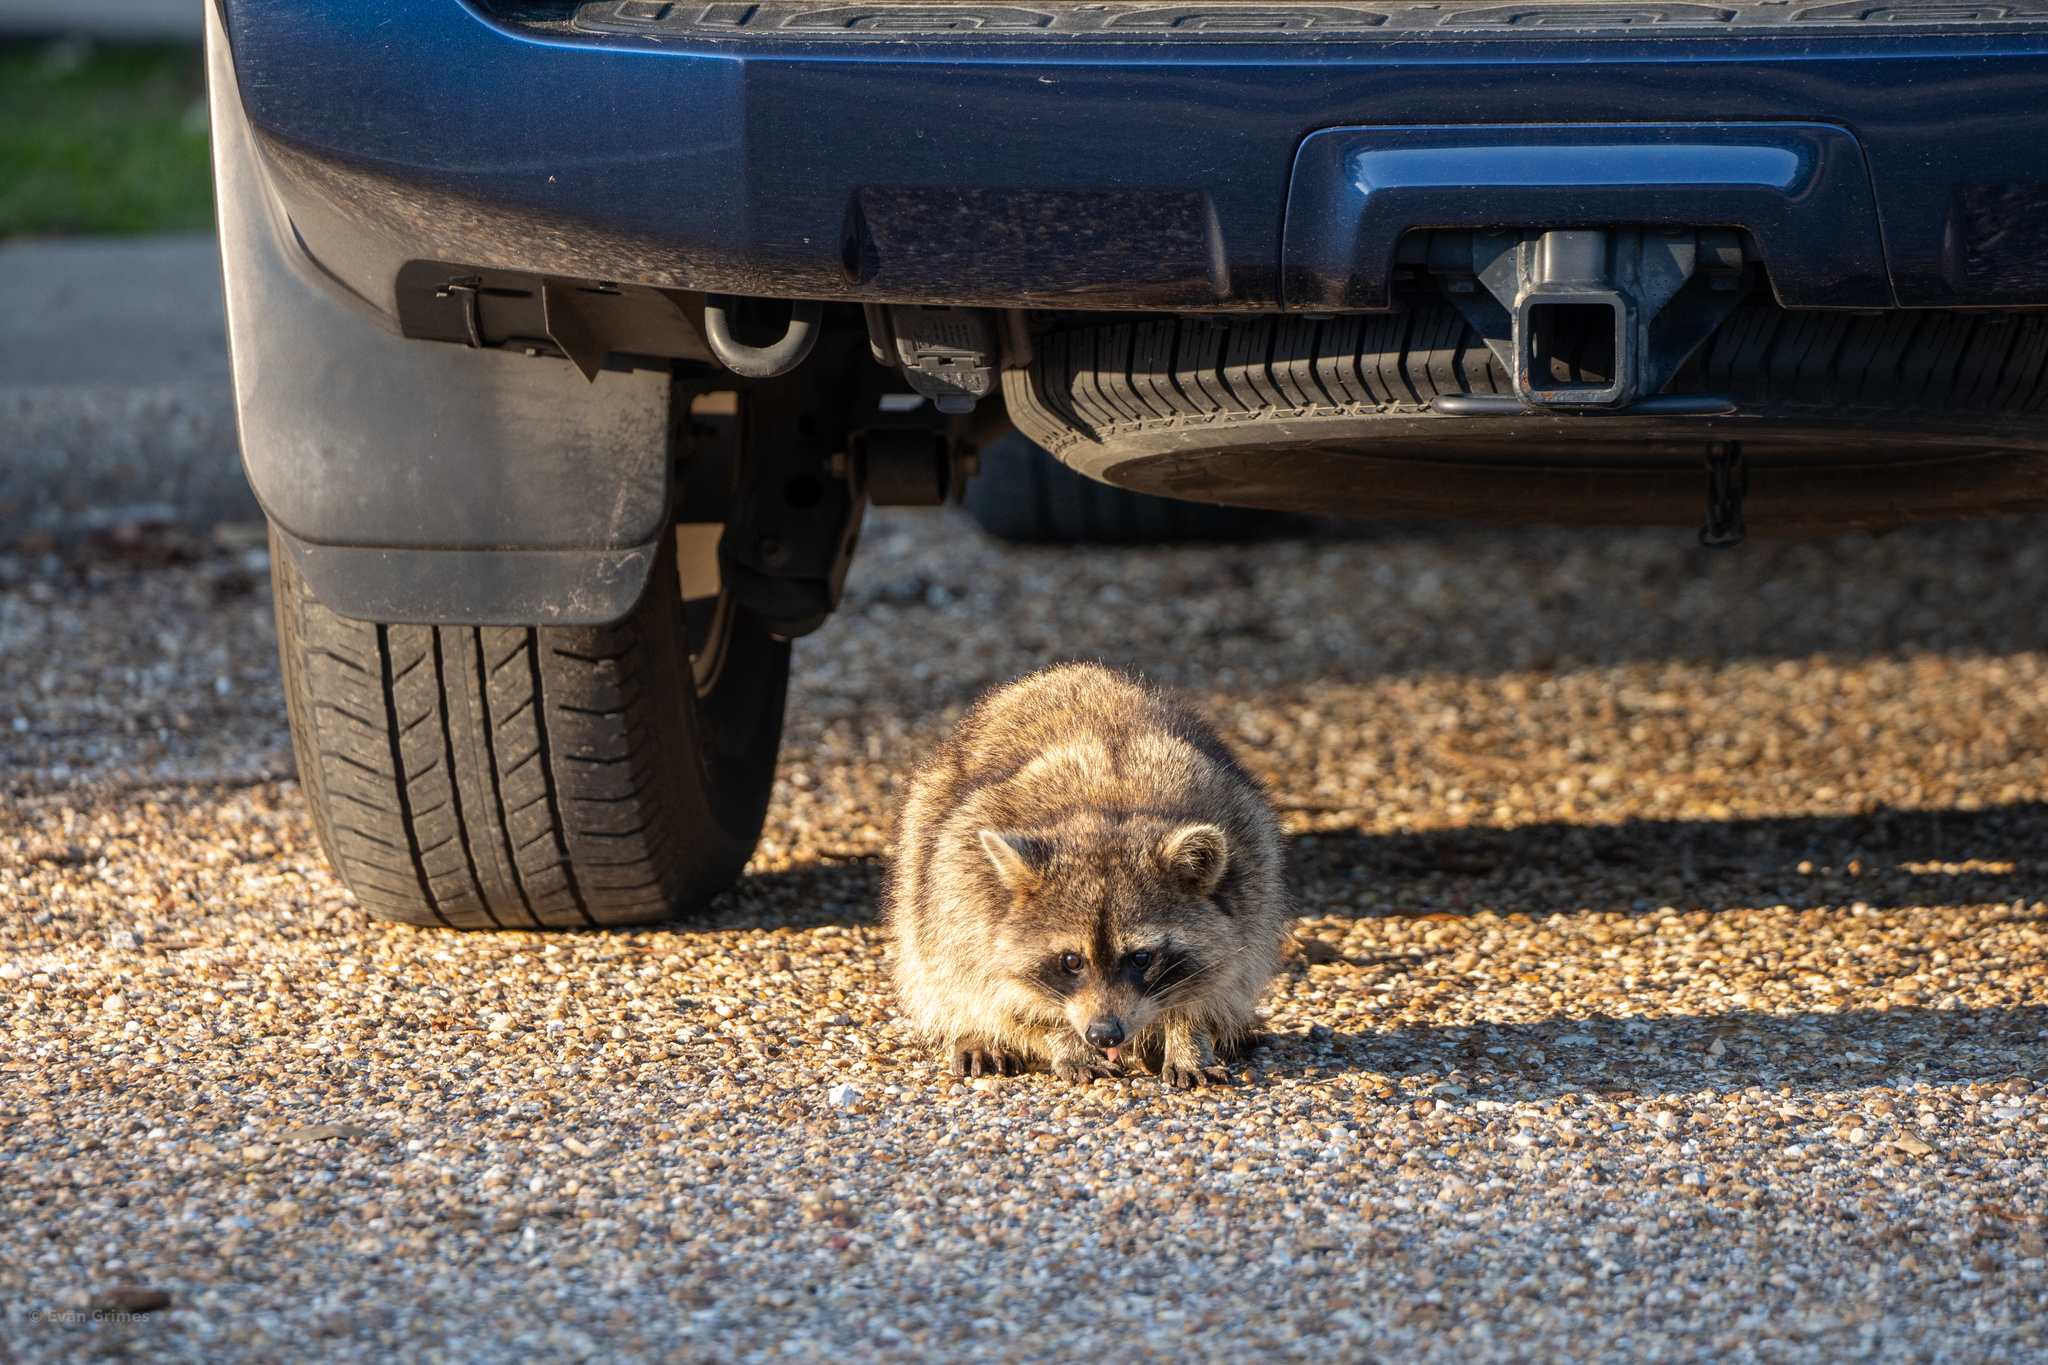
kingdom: Animalia
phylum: Chordata
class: Mammalia
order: Carnivora
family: Procyonidae
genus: Procyon
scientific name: Procyon lotor
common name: Raccoon
